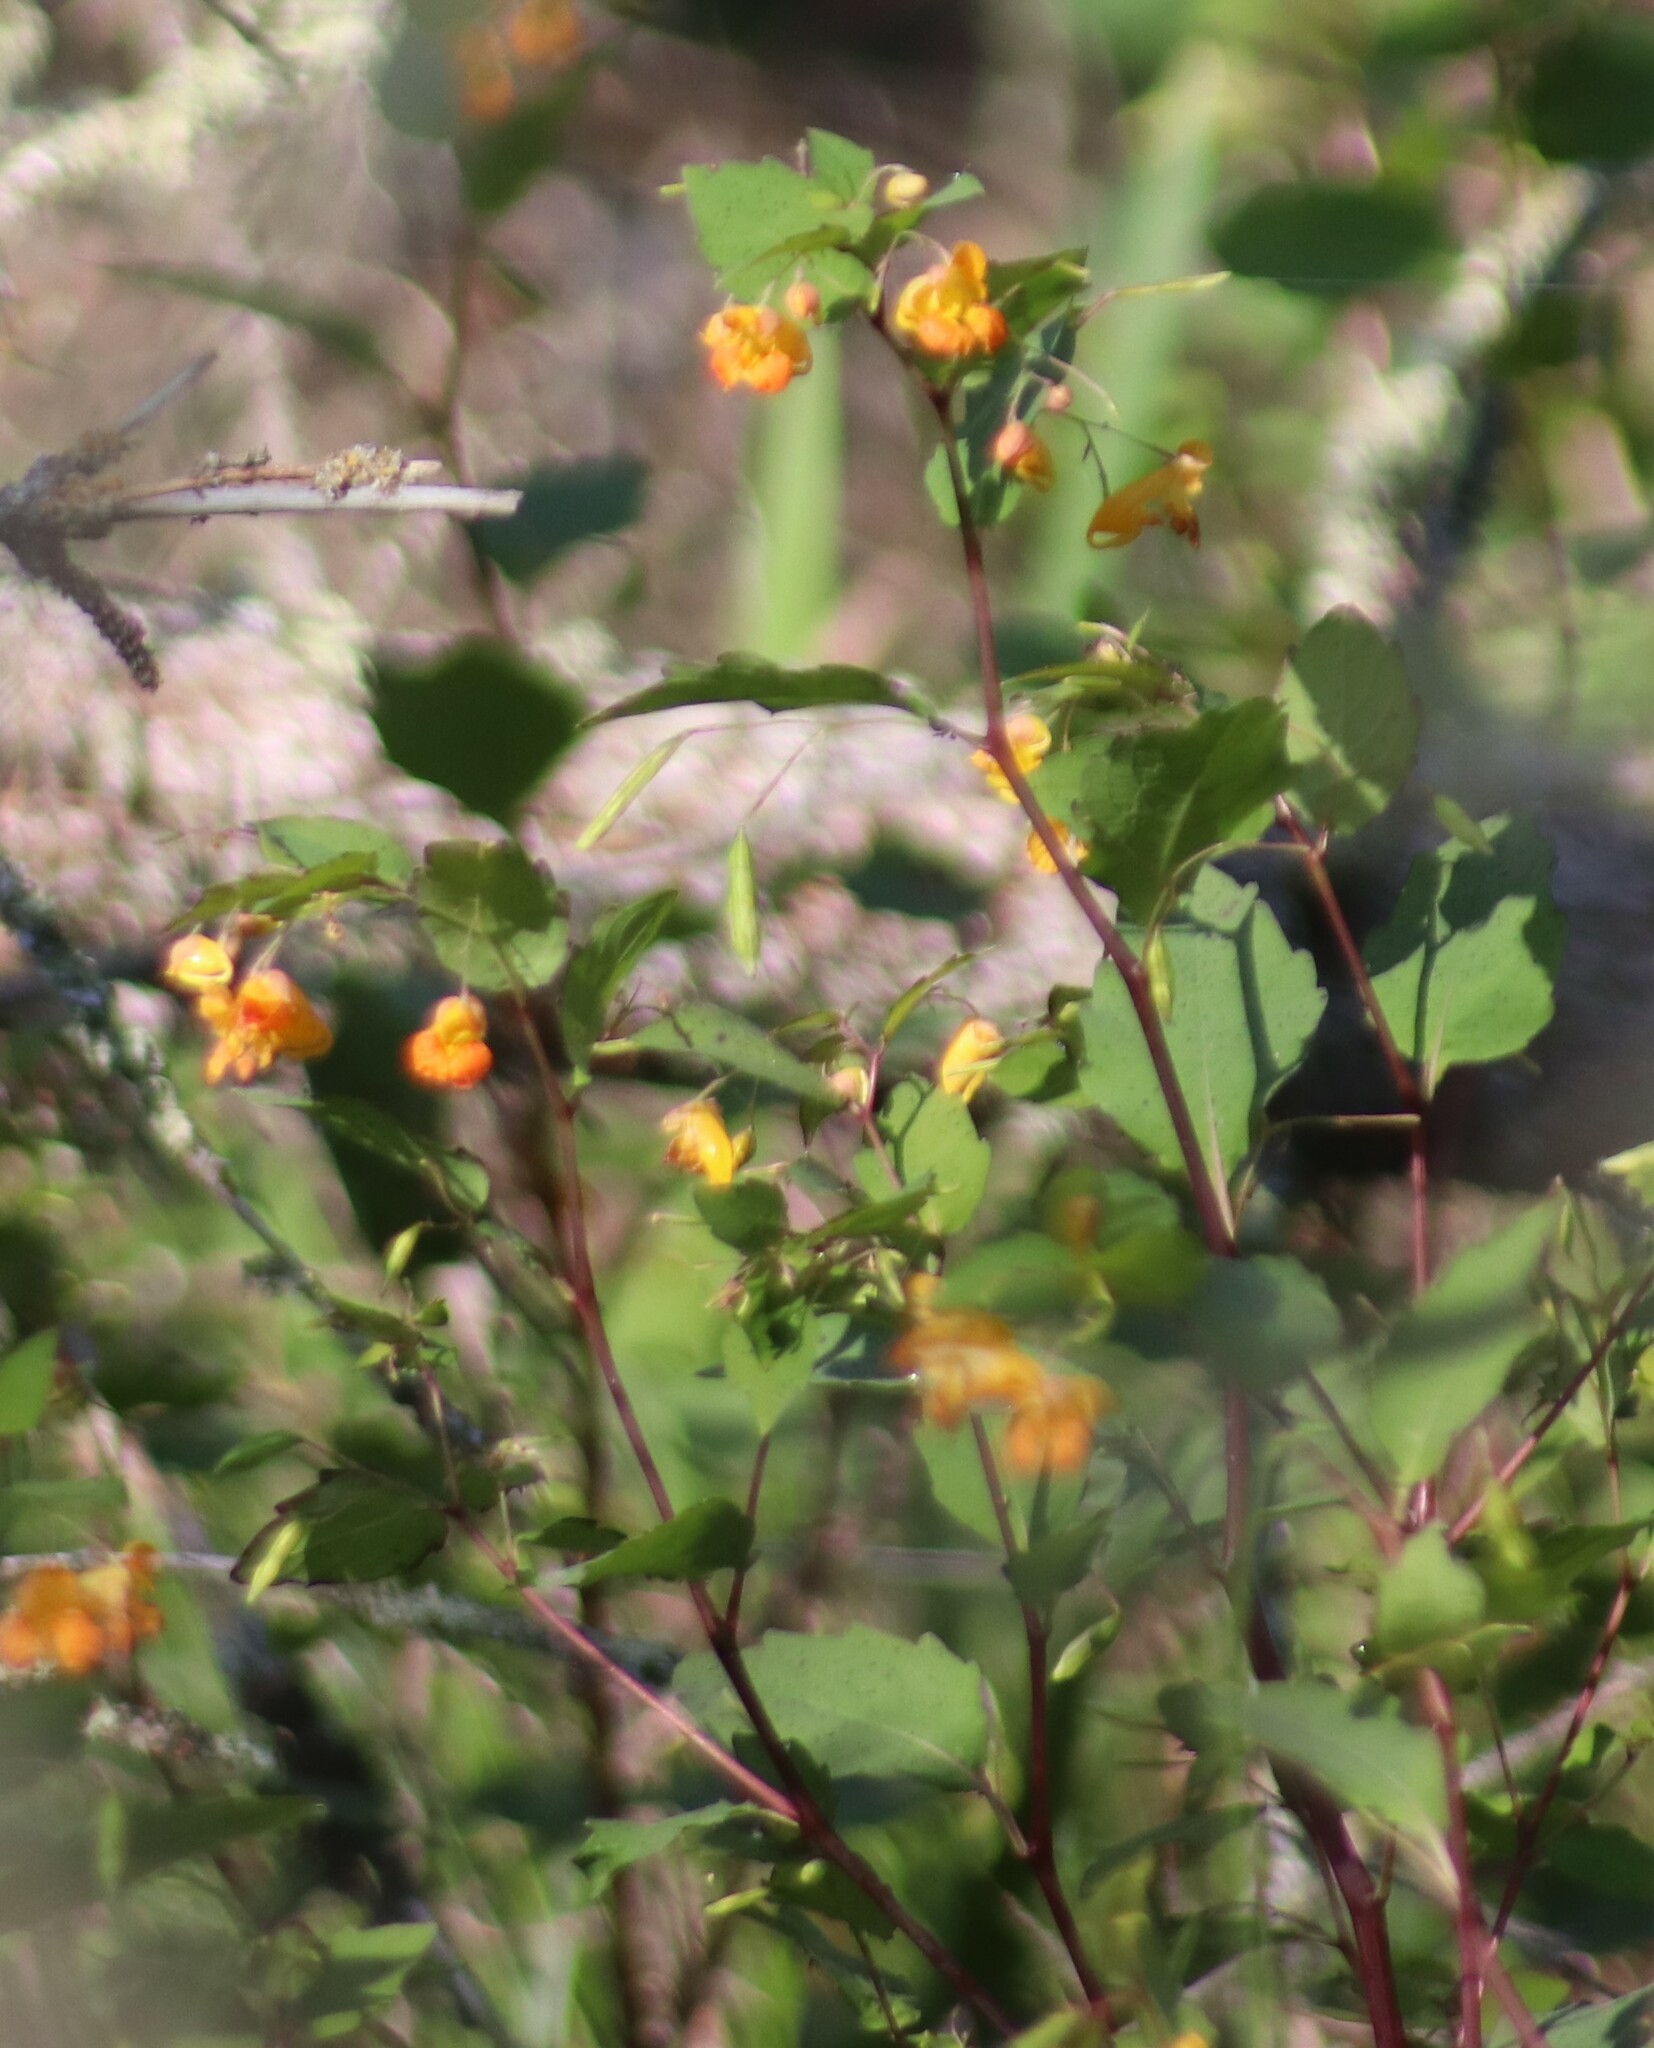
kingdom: Plantae
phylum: Tracheophyta
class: Magnoliopsida
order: Ericales
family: Balsaminaceae
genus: Impatiens
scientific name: Impatiens capensis
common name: Orange balsam
